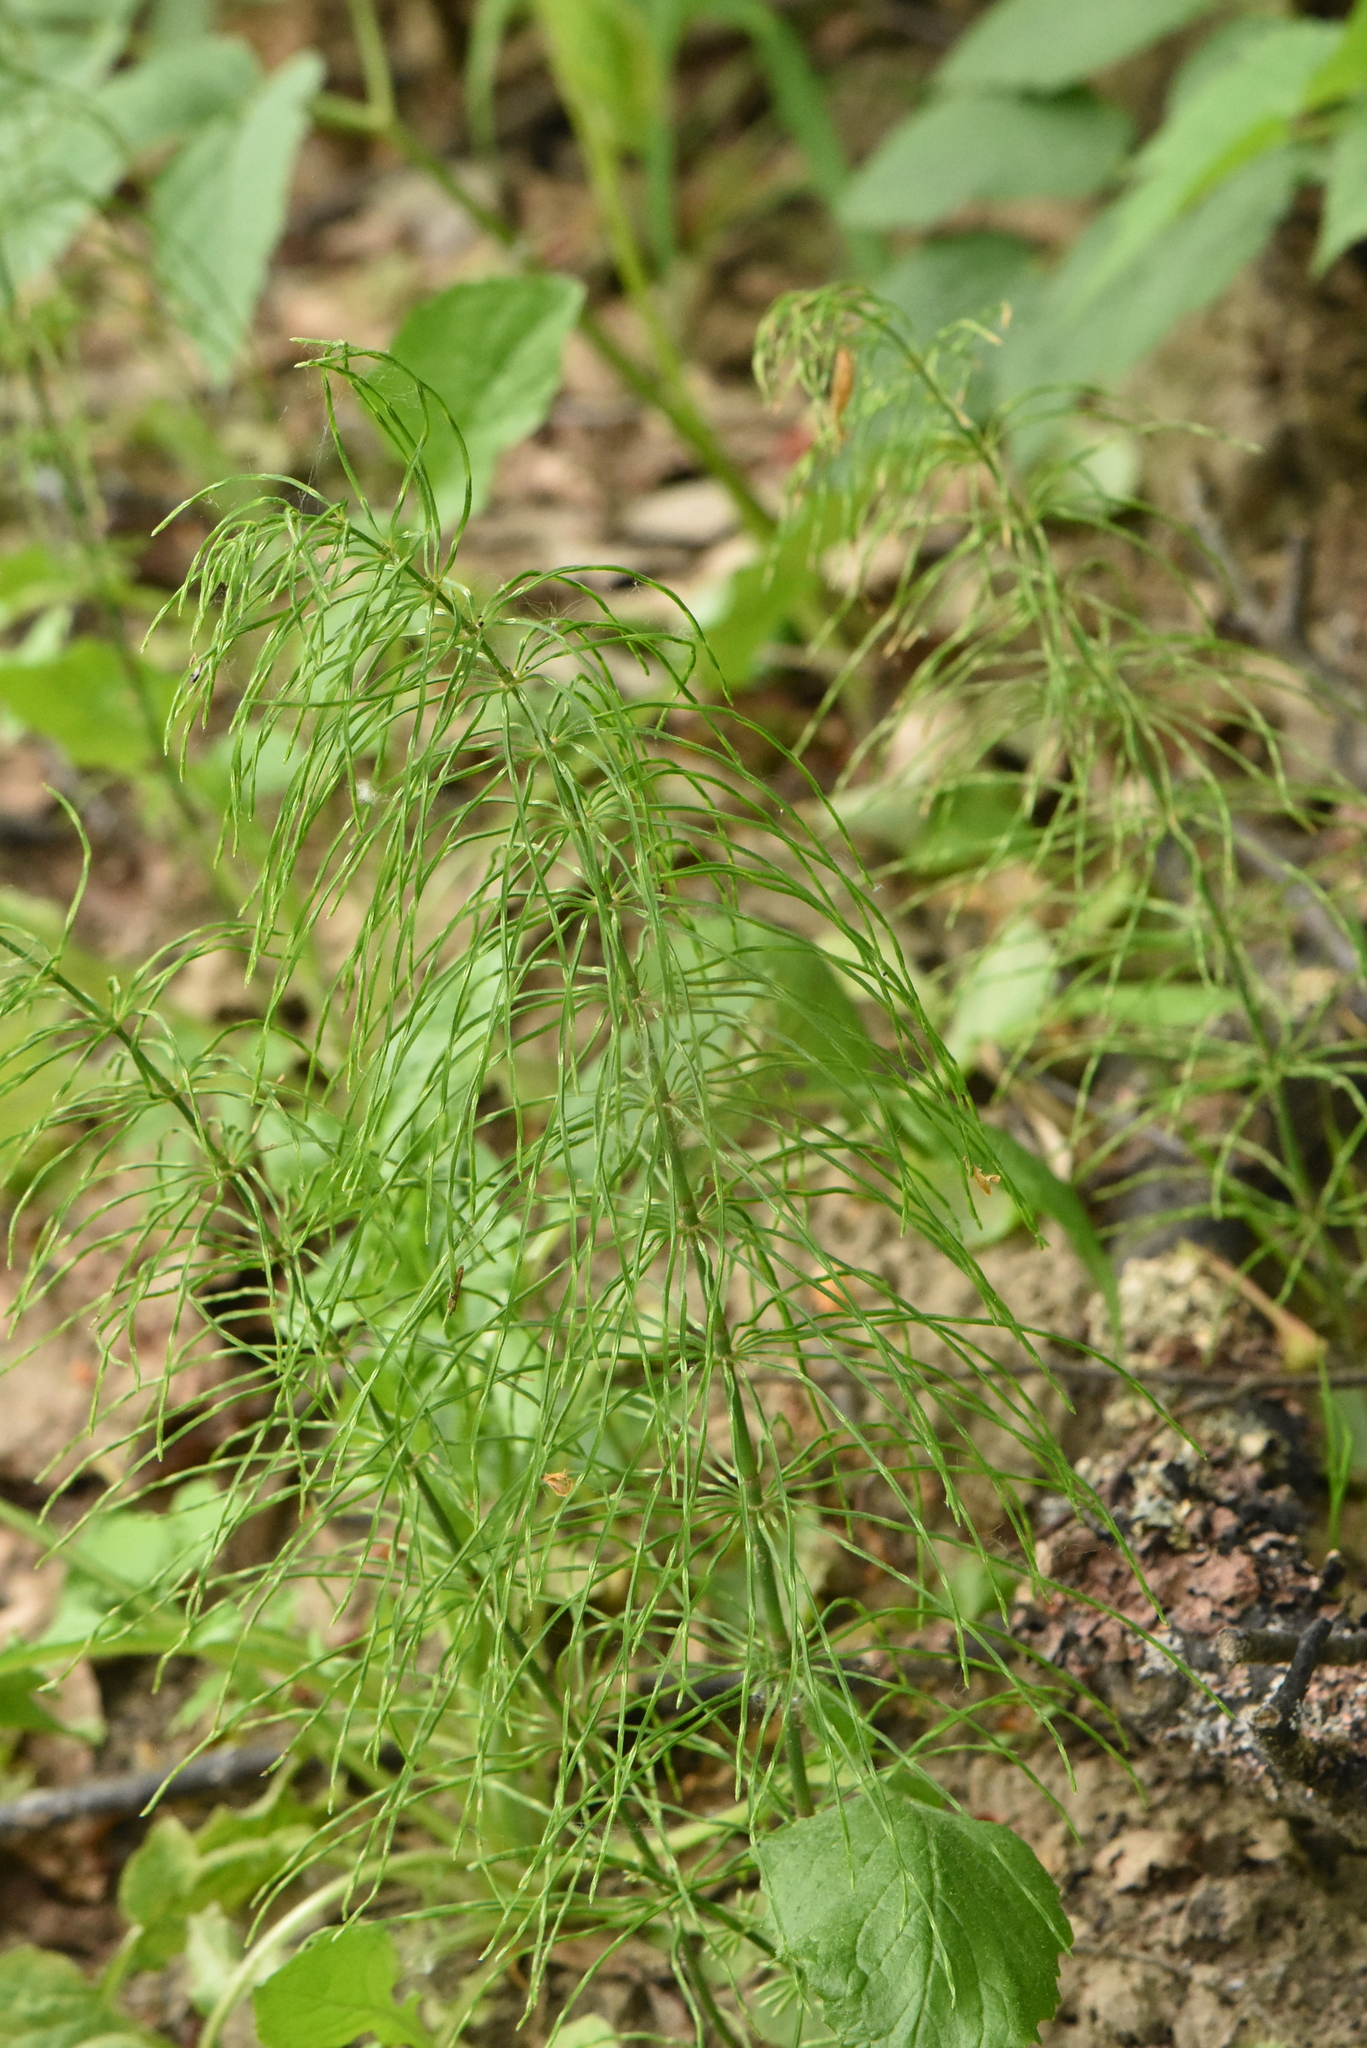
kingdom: Plantae
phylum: Tracheophyta
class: Polypodiopsida
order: Equisetales
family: Equisetaceae
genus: Equisetum
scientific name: Equisetum pratense
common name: Meadow horsetail
